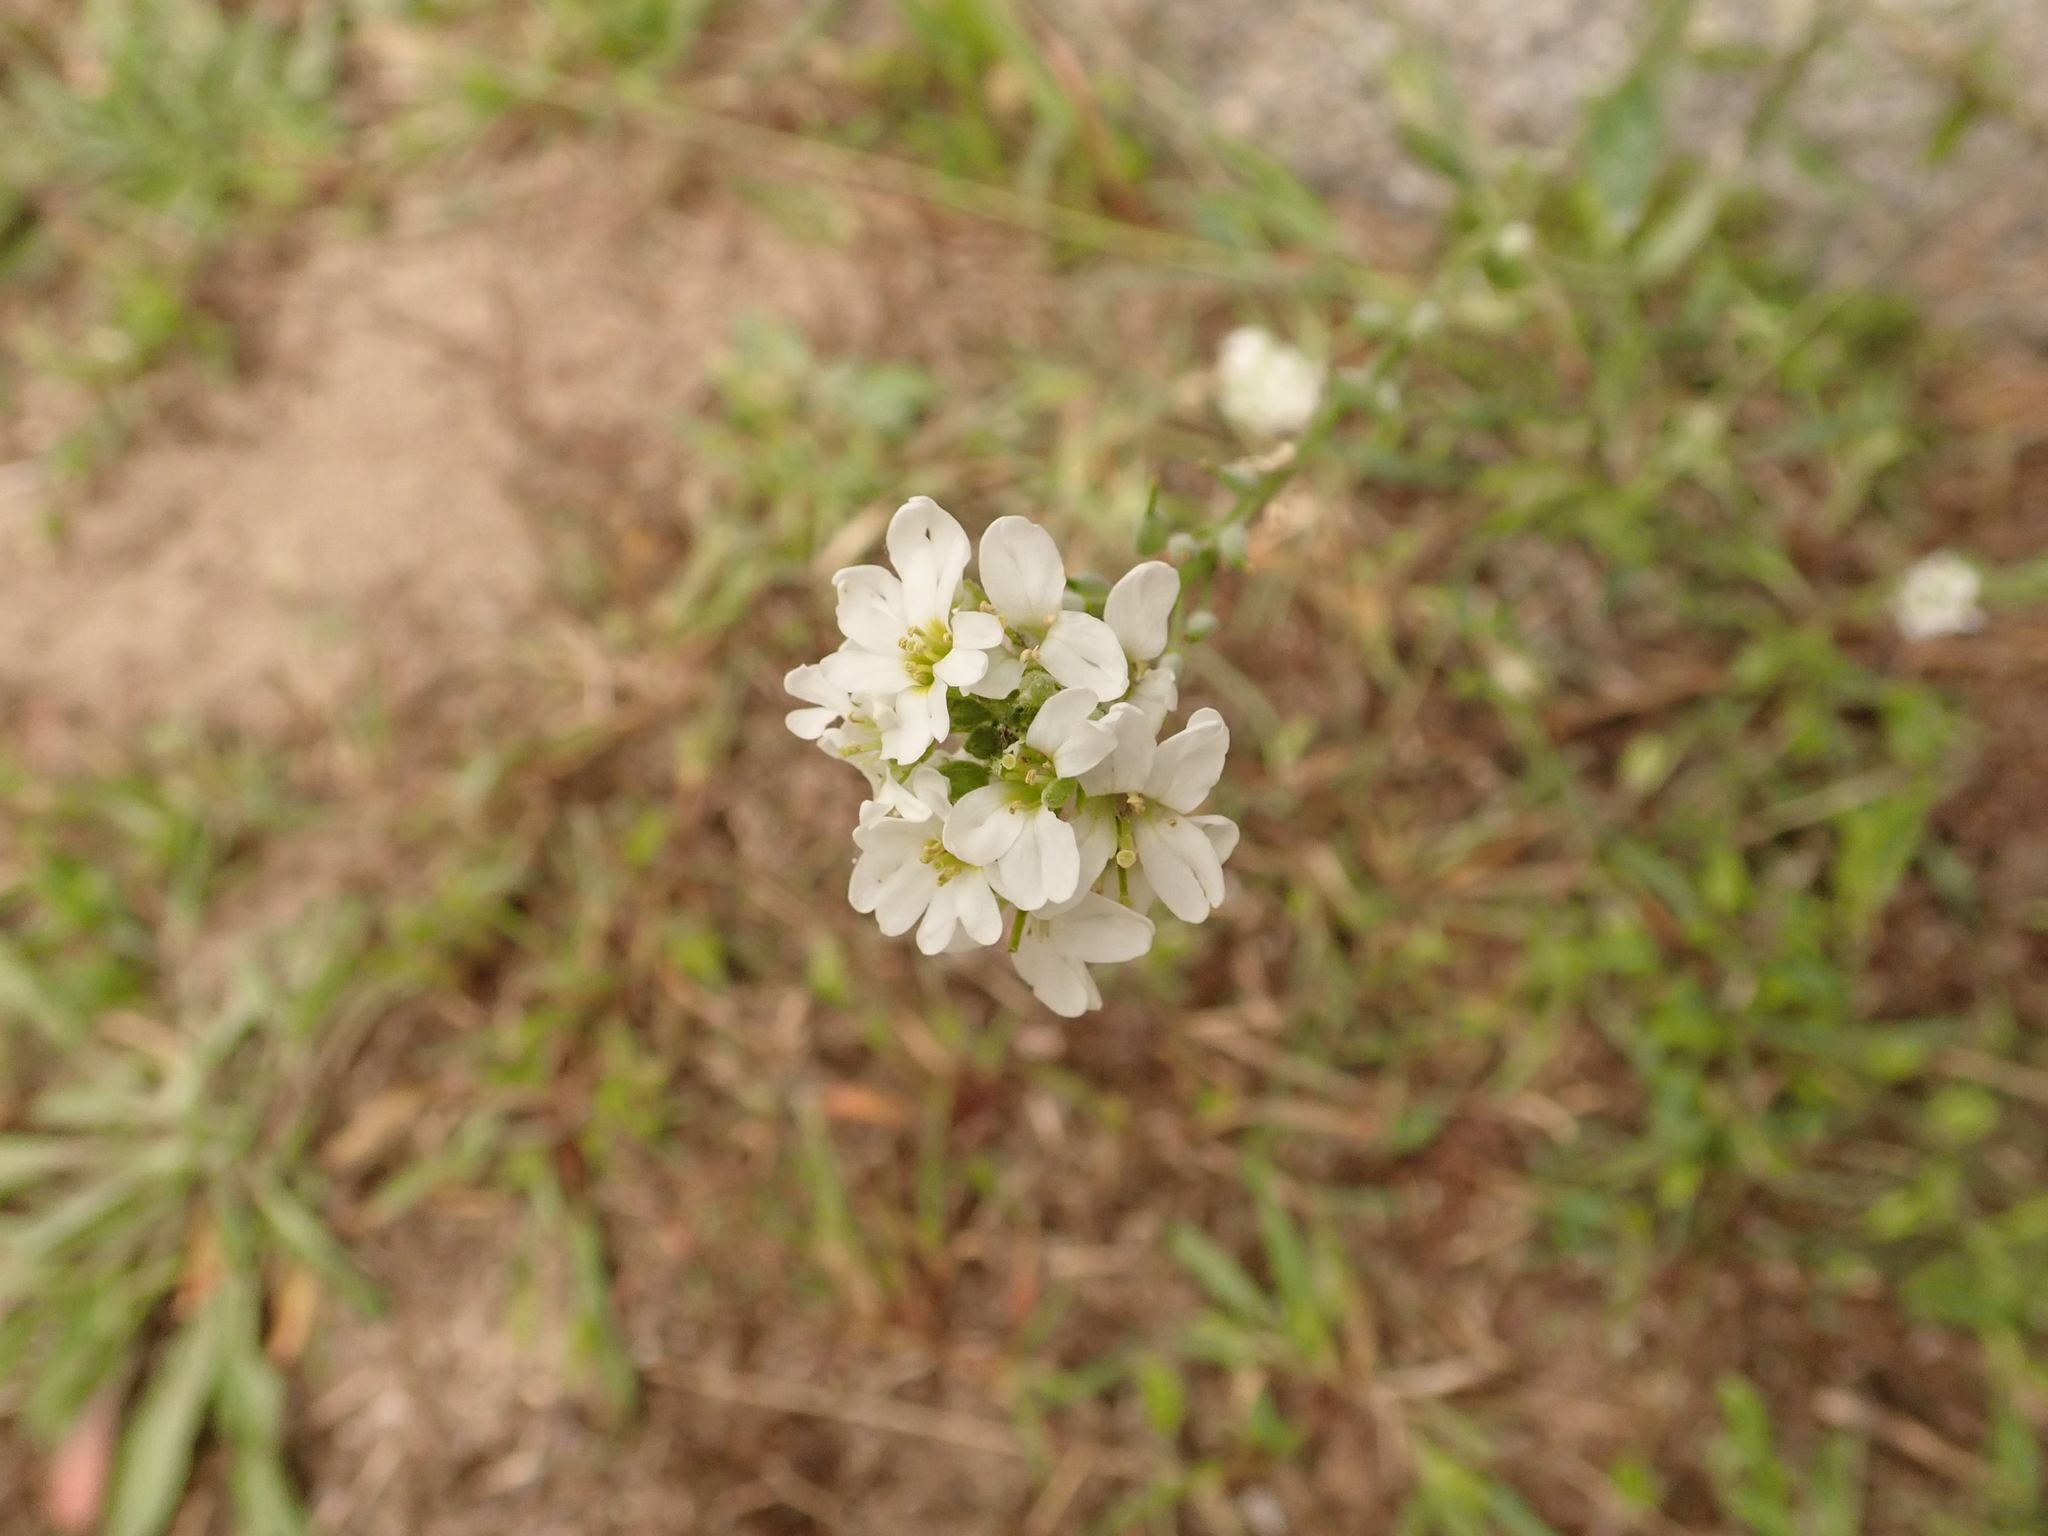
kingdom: Plantae
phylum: Tracheophyta
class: Magnoliopsida
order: Brassicales
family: Brassicaceae
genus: Berteroa
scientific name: Berteroa incana
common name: Hoary alison
